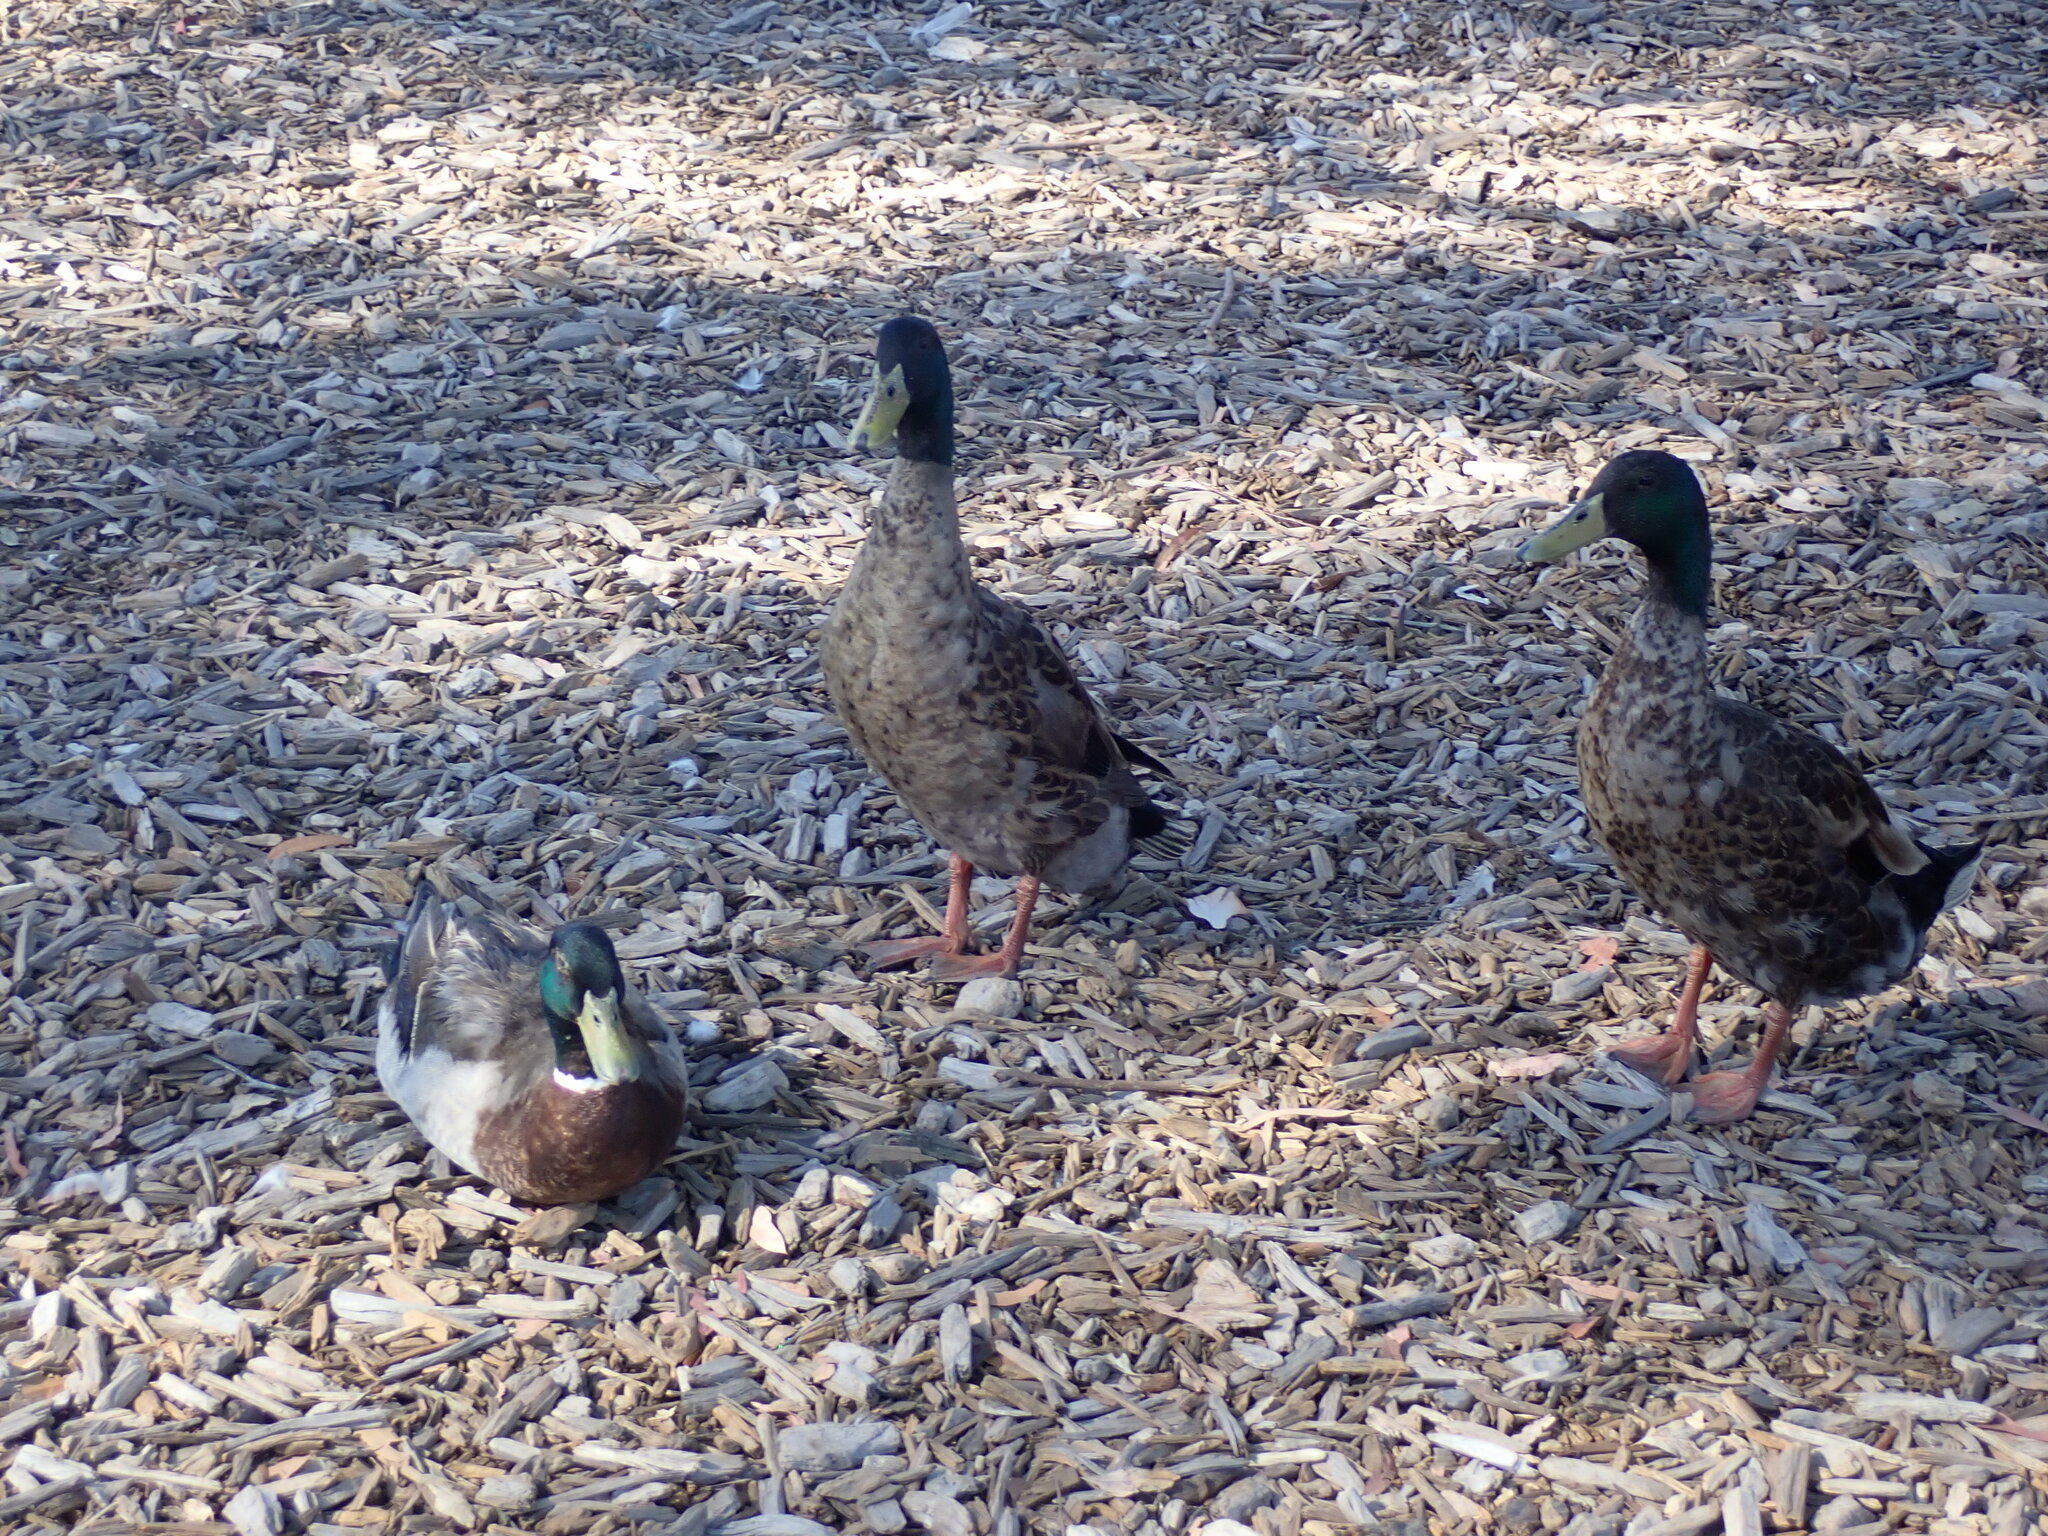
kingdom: Animalia
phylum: Chordata
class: Aves
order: Anseriformes
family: Anatidae
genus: Anas
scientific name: Anas platyrhynchos
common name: Mallard
